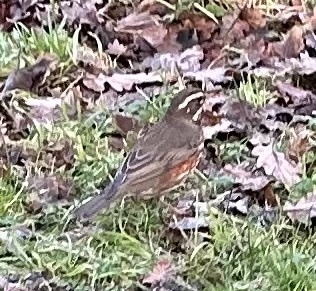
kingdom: Animalia
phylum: Chordata
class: Aves
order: Passeriformes
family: Turdidae
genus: Turdus
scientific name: Turdus iliacus
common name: Redwing
